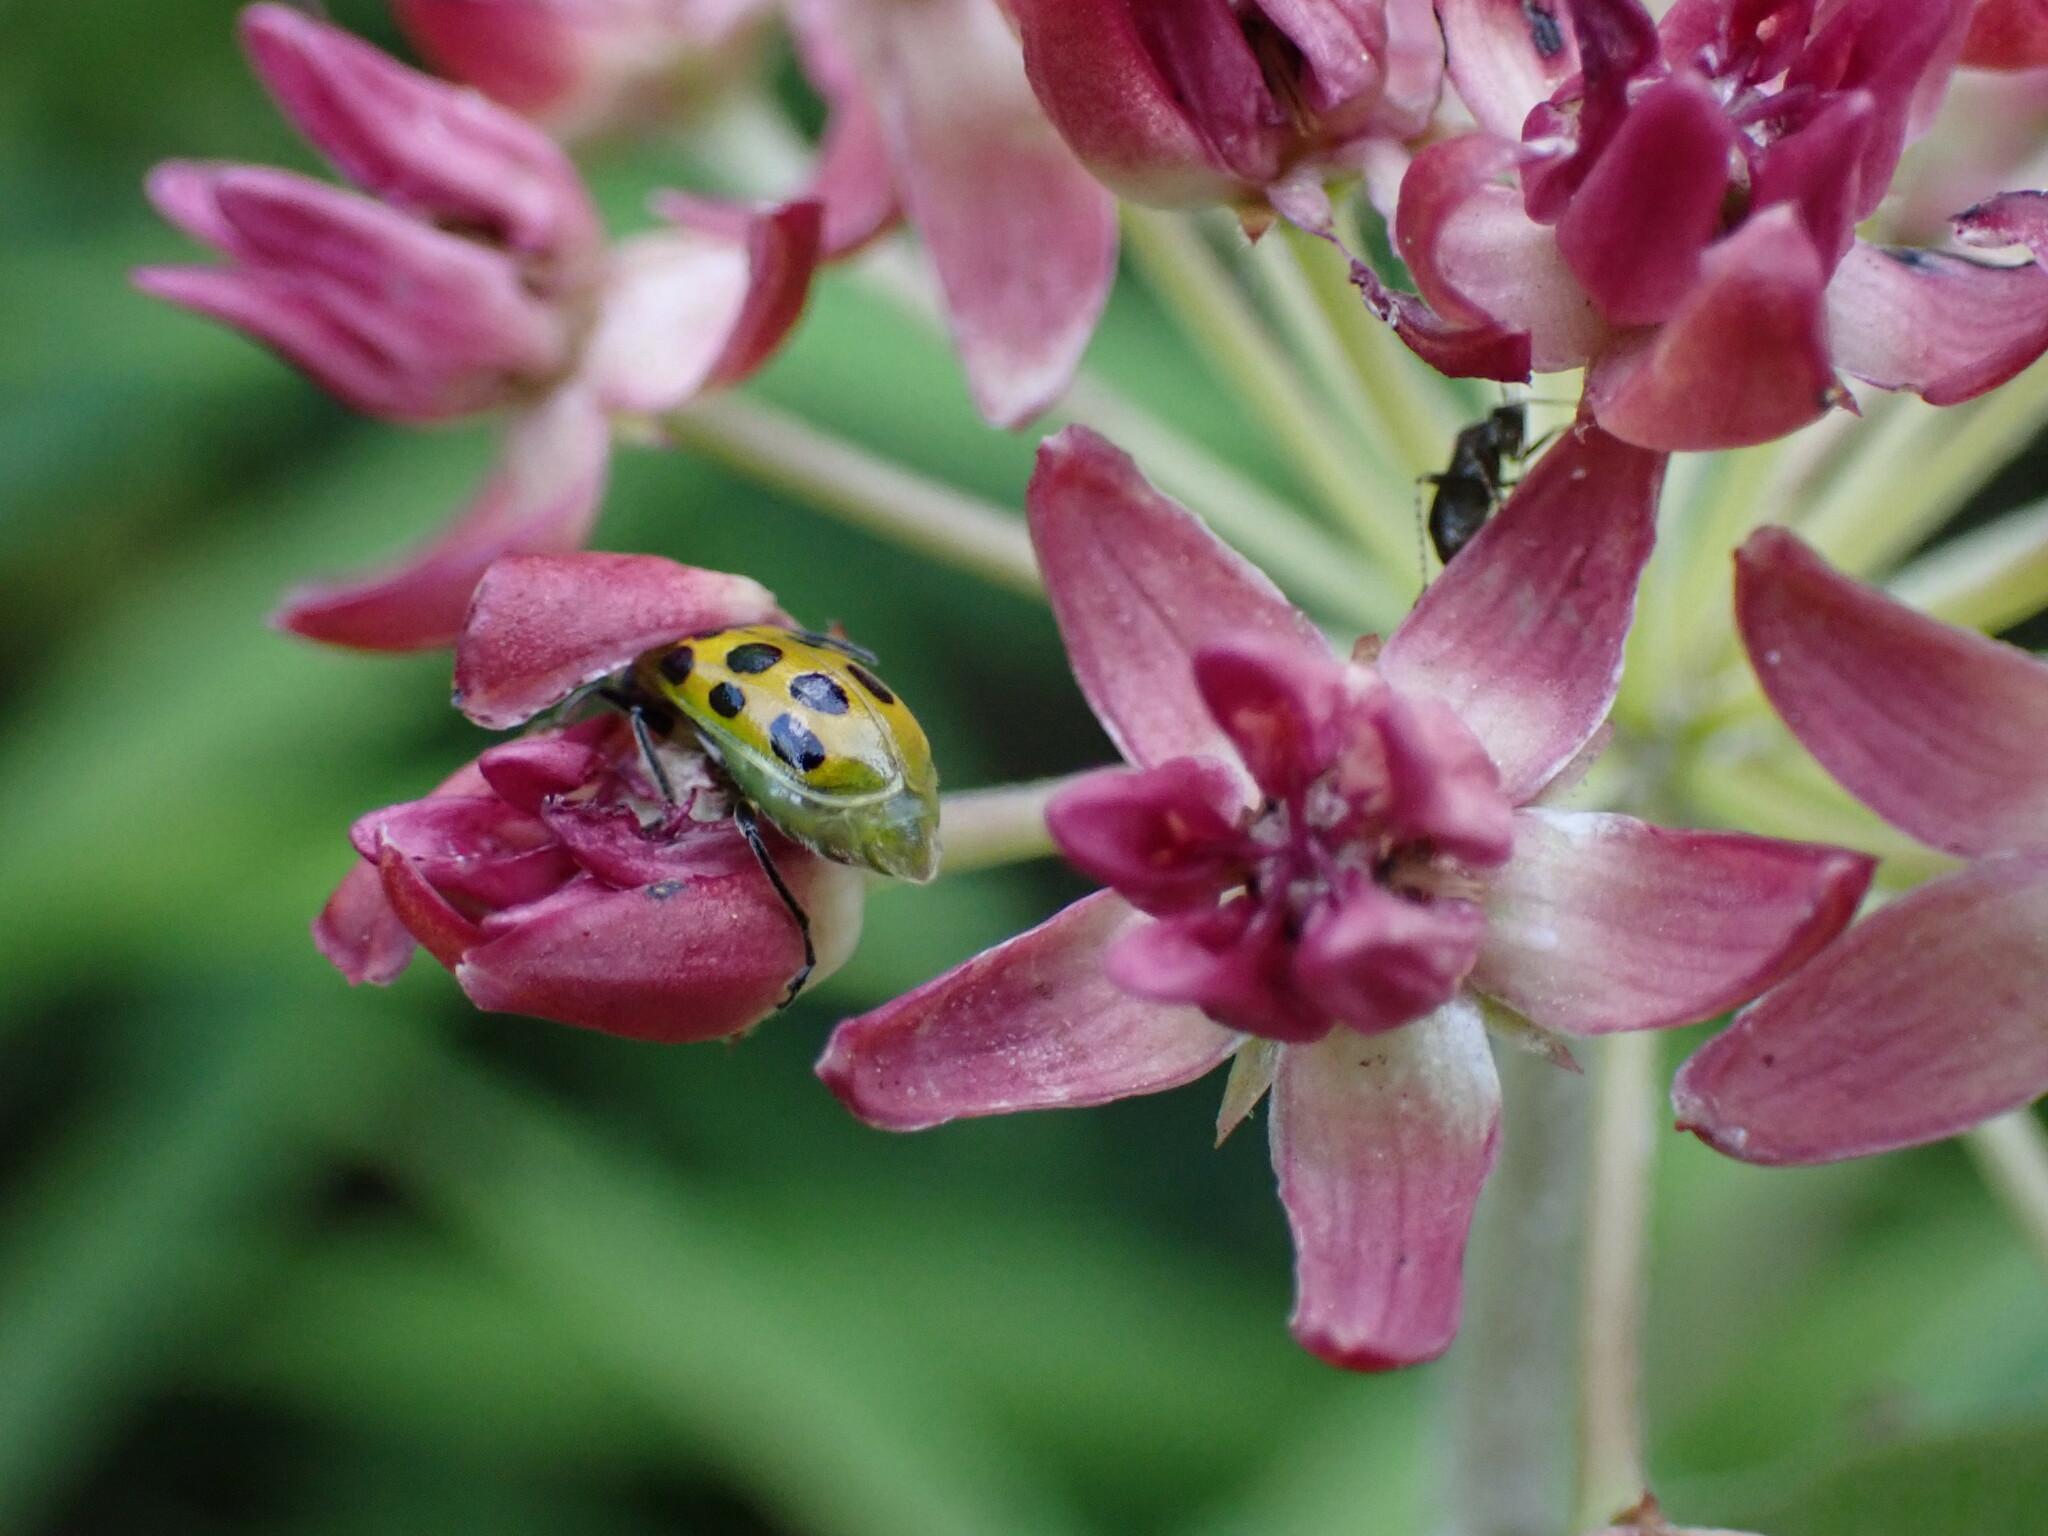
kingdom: Animalia
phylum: Arthropoda
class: Insecta
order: Coleoptera
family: Chrysomelidae
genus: Diabrotica
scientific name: Diabrotica undecimpunctata
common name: Spotted cucumber beetle
